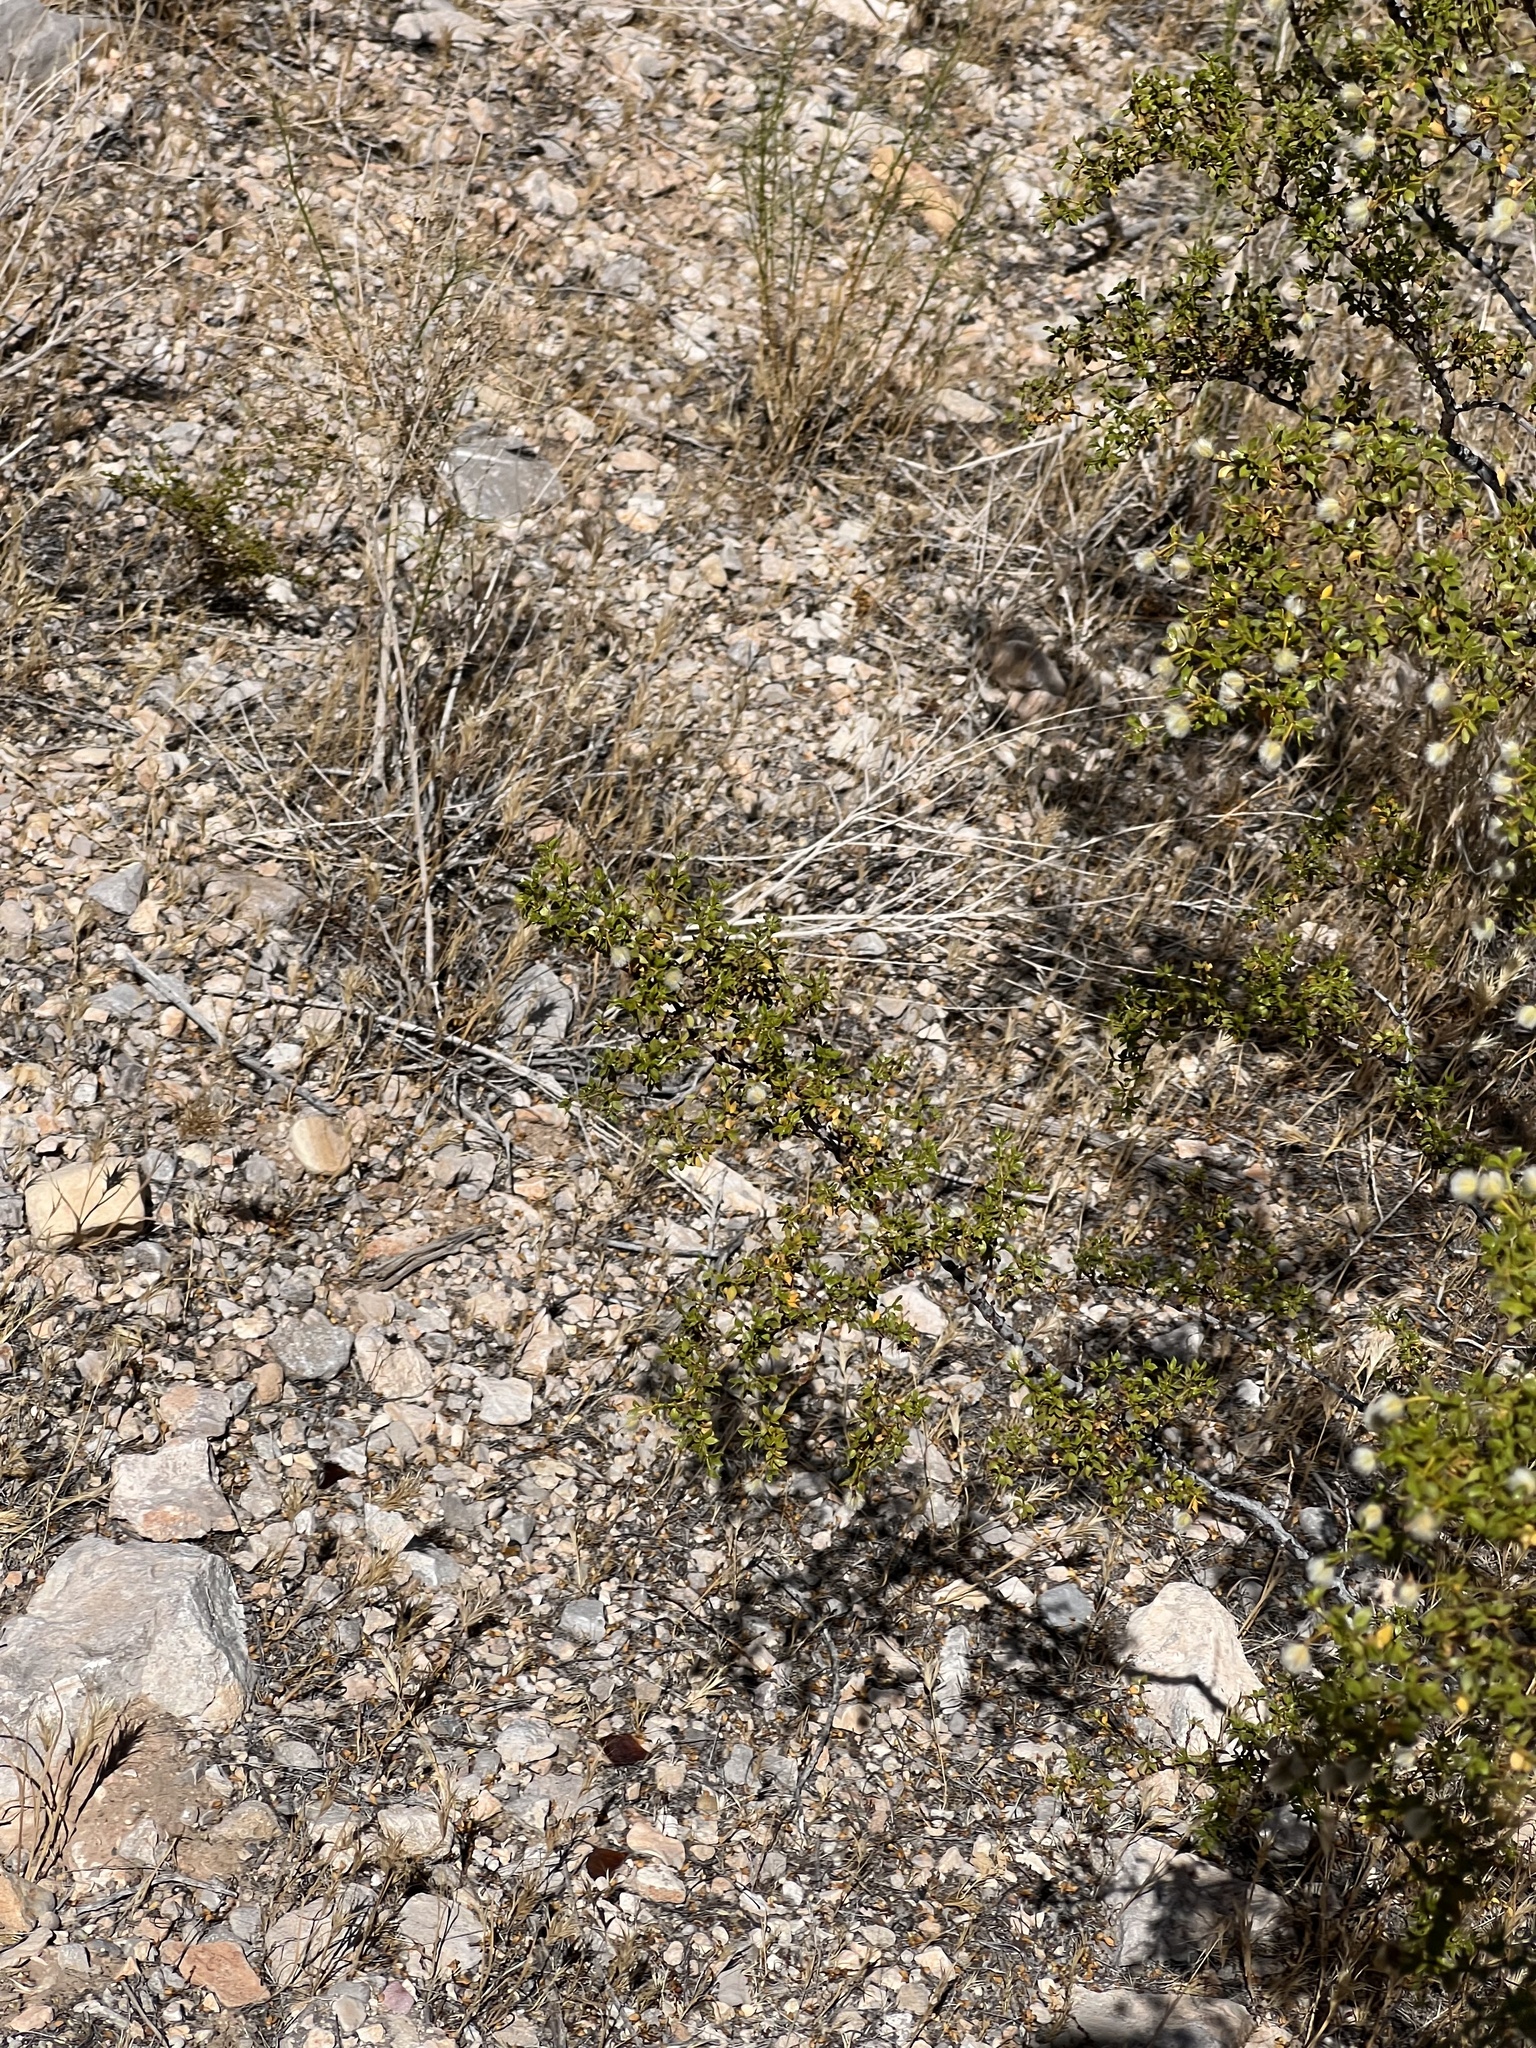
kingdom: Plantae
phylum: Tracheophyta
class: Magnoliopsida
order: Zygophyllales
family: Zygophyllaceae
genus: Larrea
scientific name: Larrea tridentata
